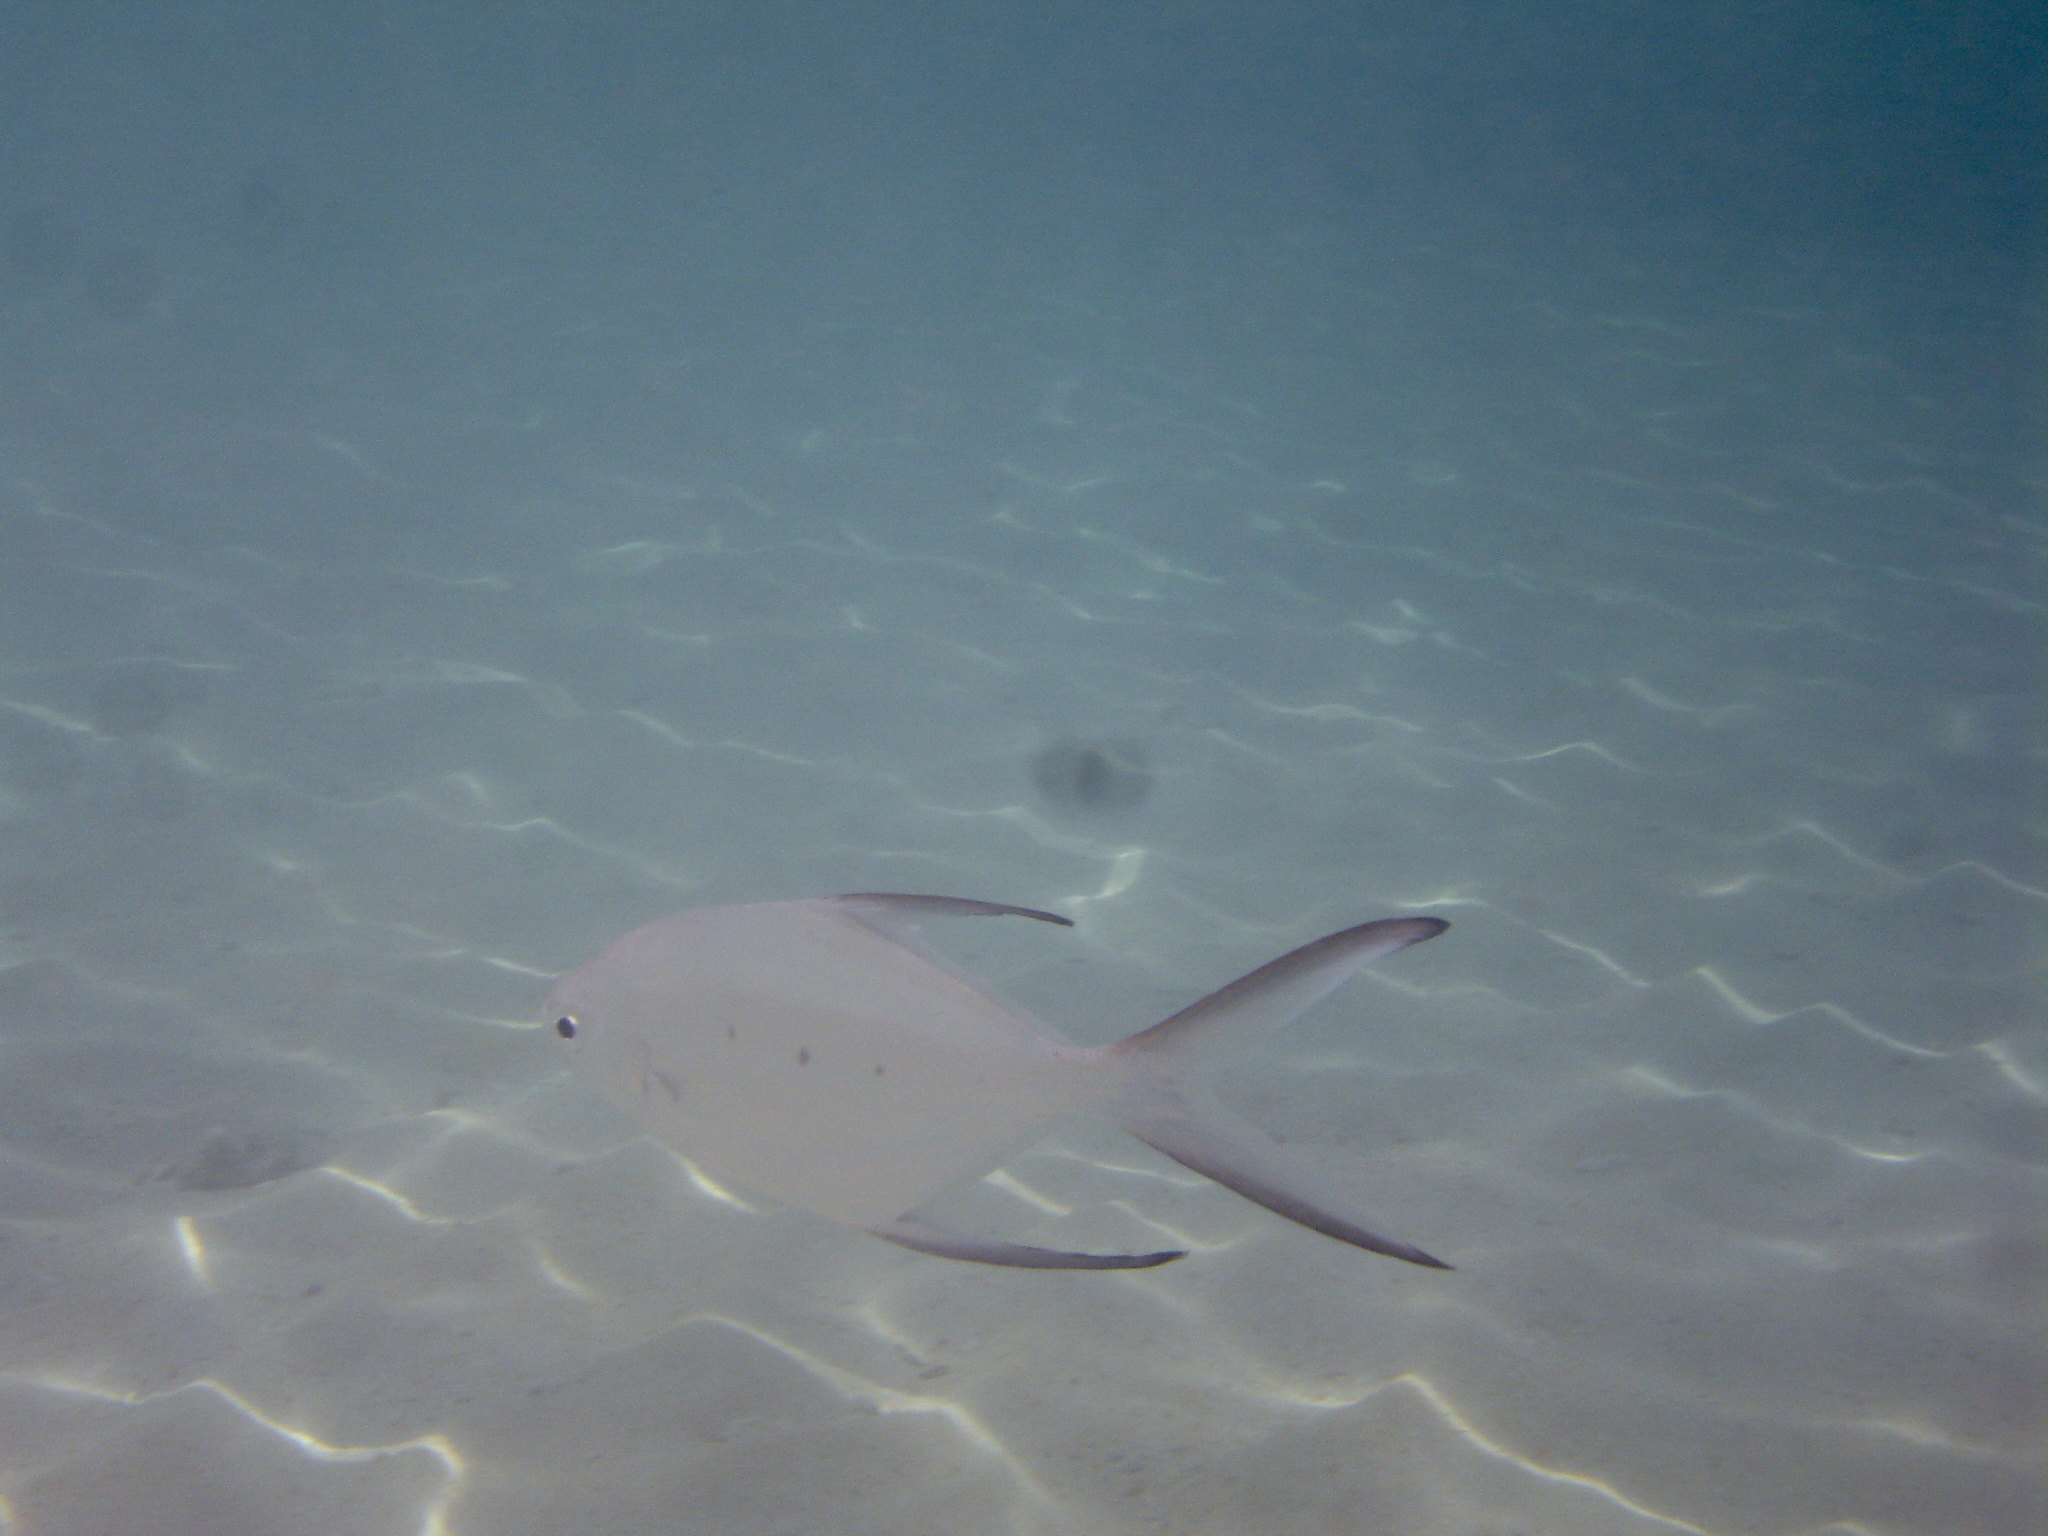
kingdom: Animalia
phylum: Chordata
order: Perciformes
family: Carangidae
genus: Trachinotus
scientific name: Trachinotus baillonii
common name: Smallspotted dart
